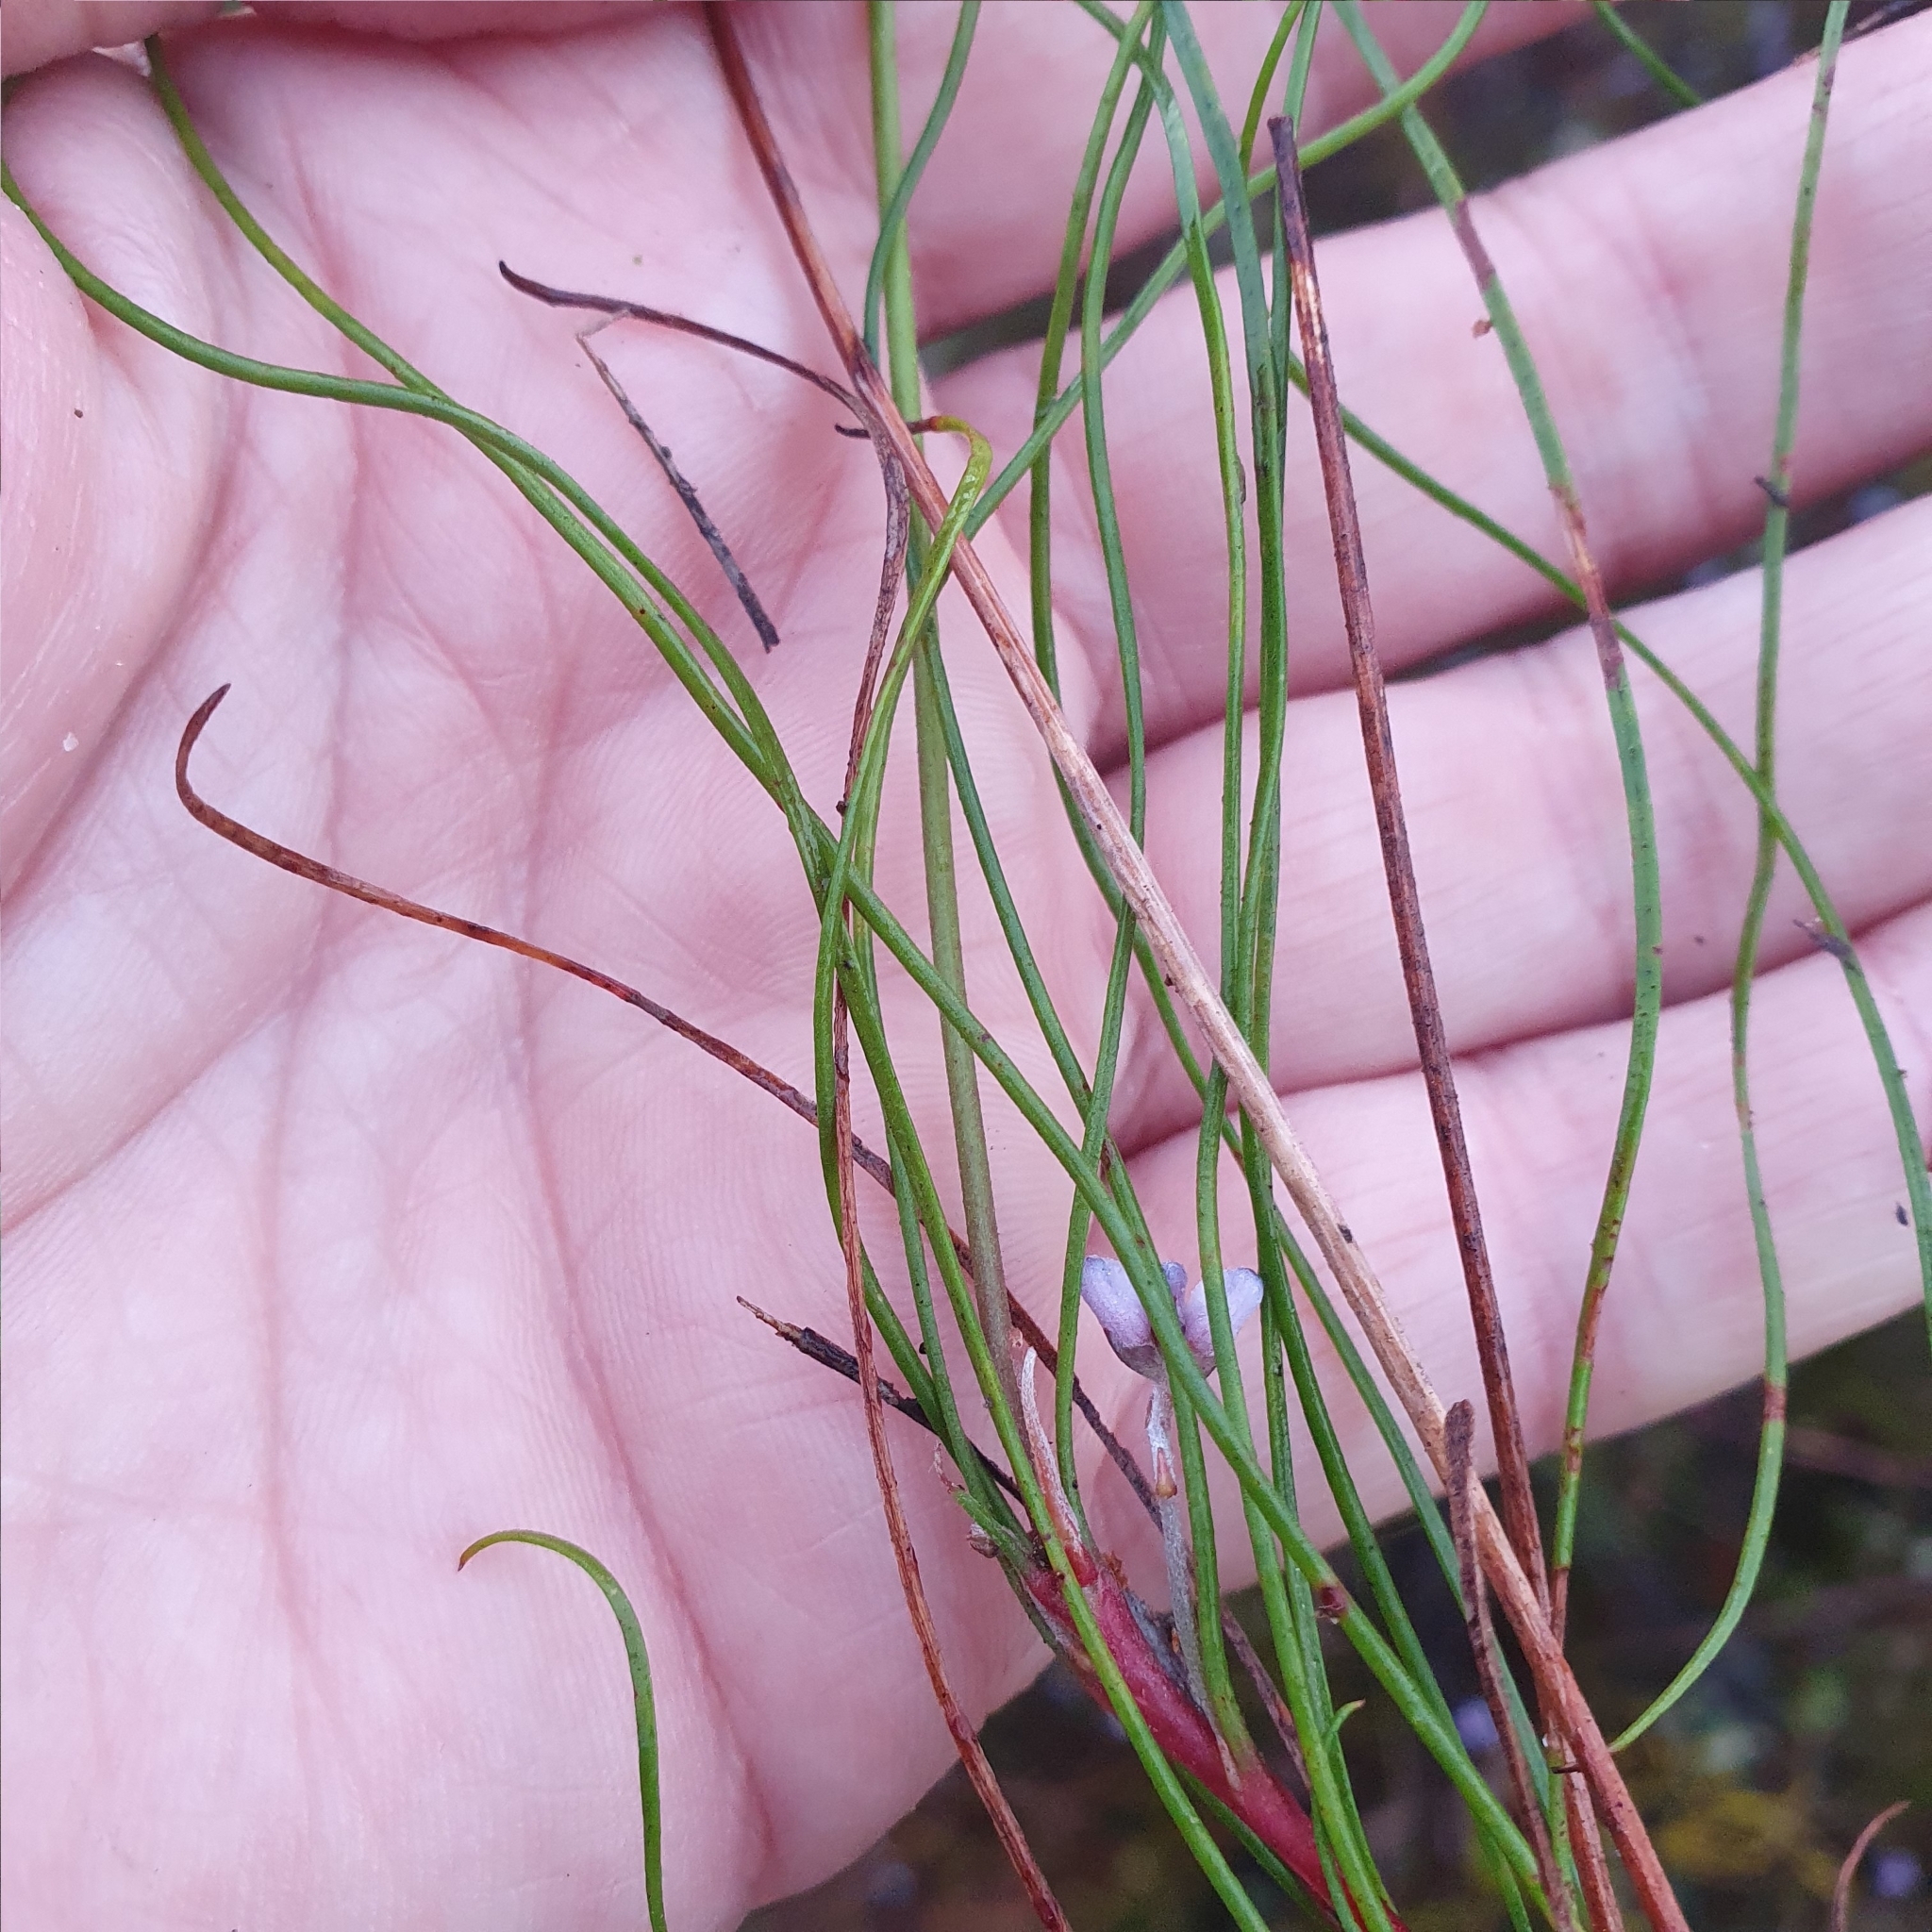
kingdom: Plantae
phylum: Tracheophyta
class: Magnoliopsida
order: Proteales
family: Proteaceae
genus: Conospermum
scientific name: Conospermum tenuifolium
